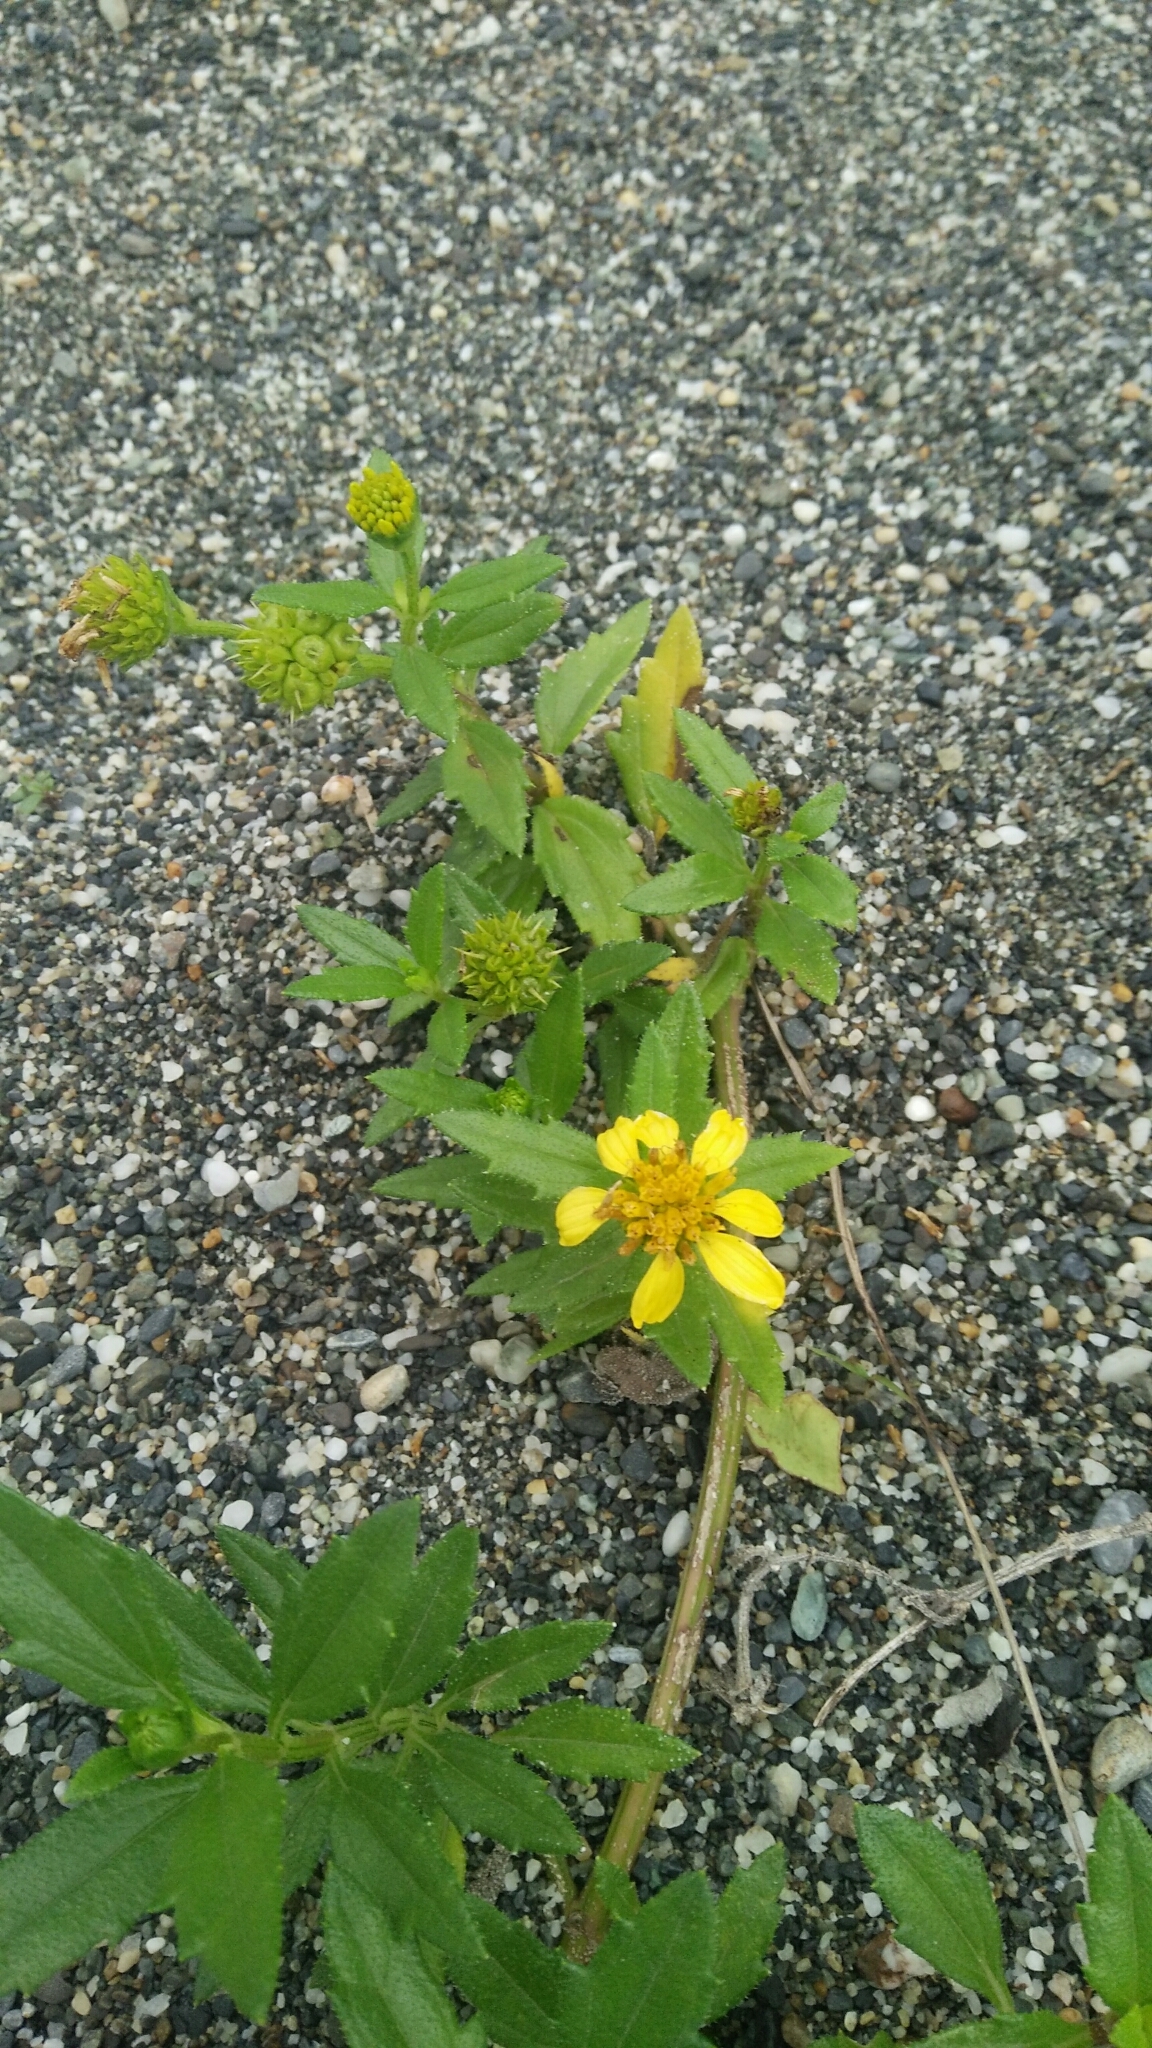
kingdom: Plantae
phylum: Tracheophyta
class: Magnoliopsida
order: Asterales
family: Asteraceae
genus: Melanthera
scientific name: Melanthera prostrata
